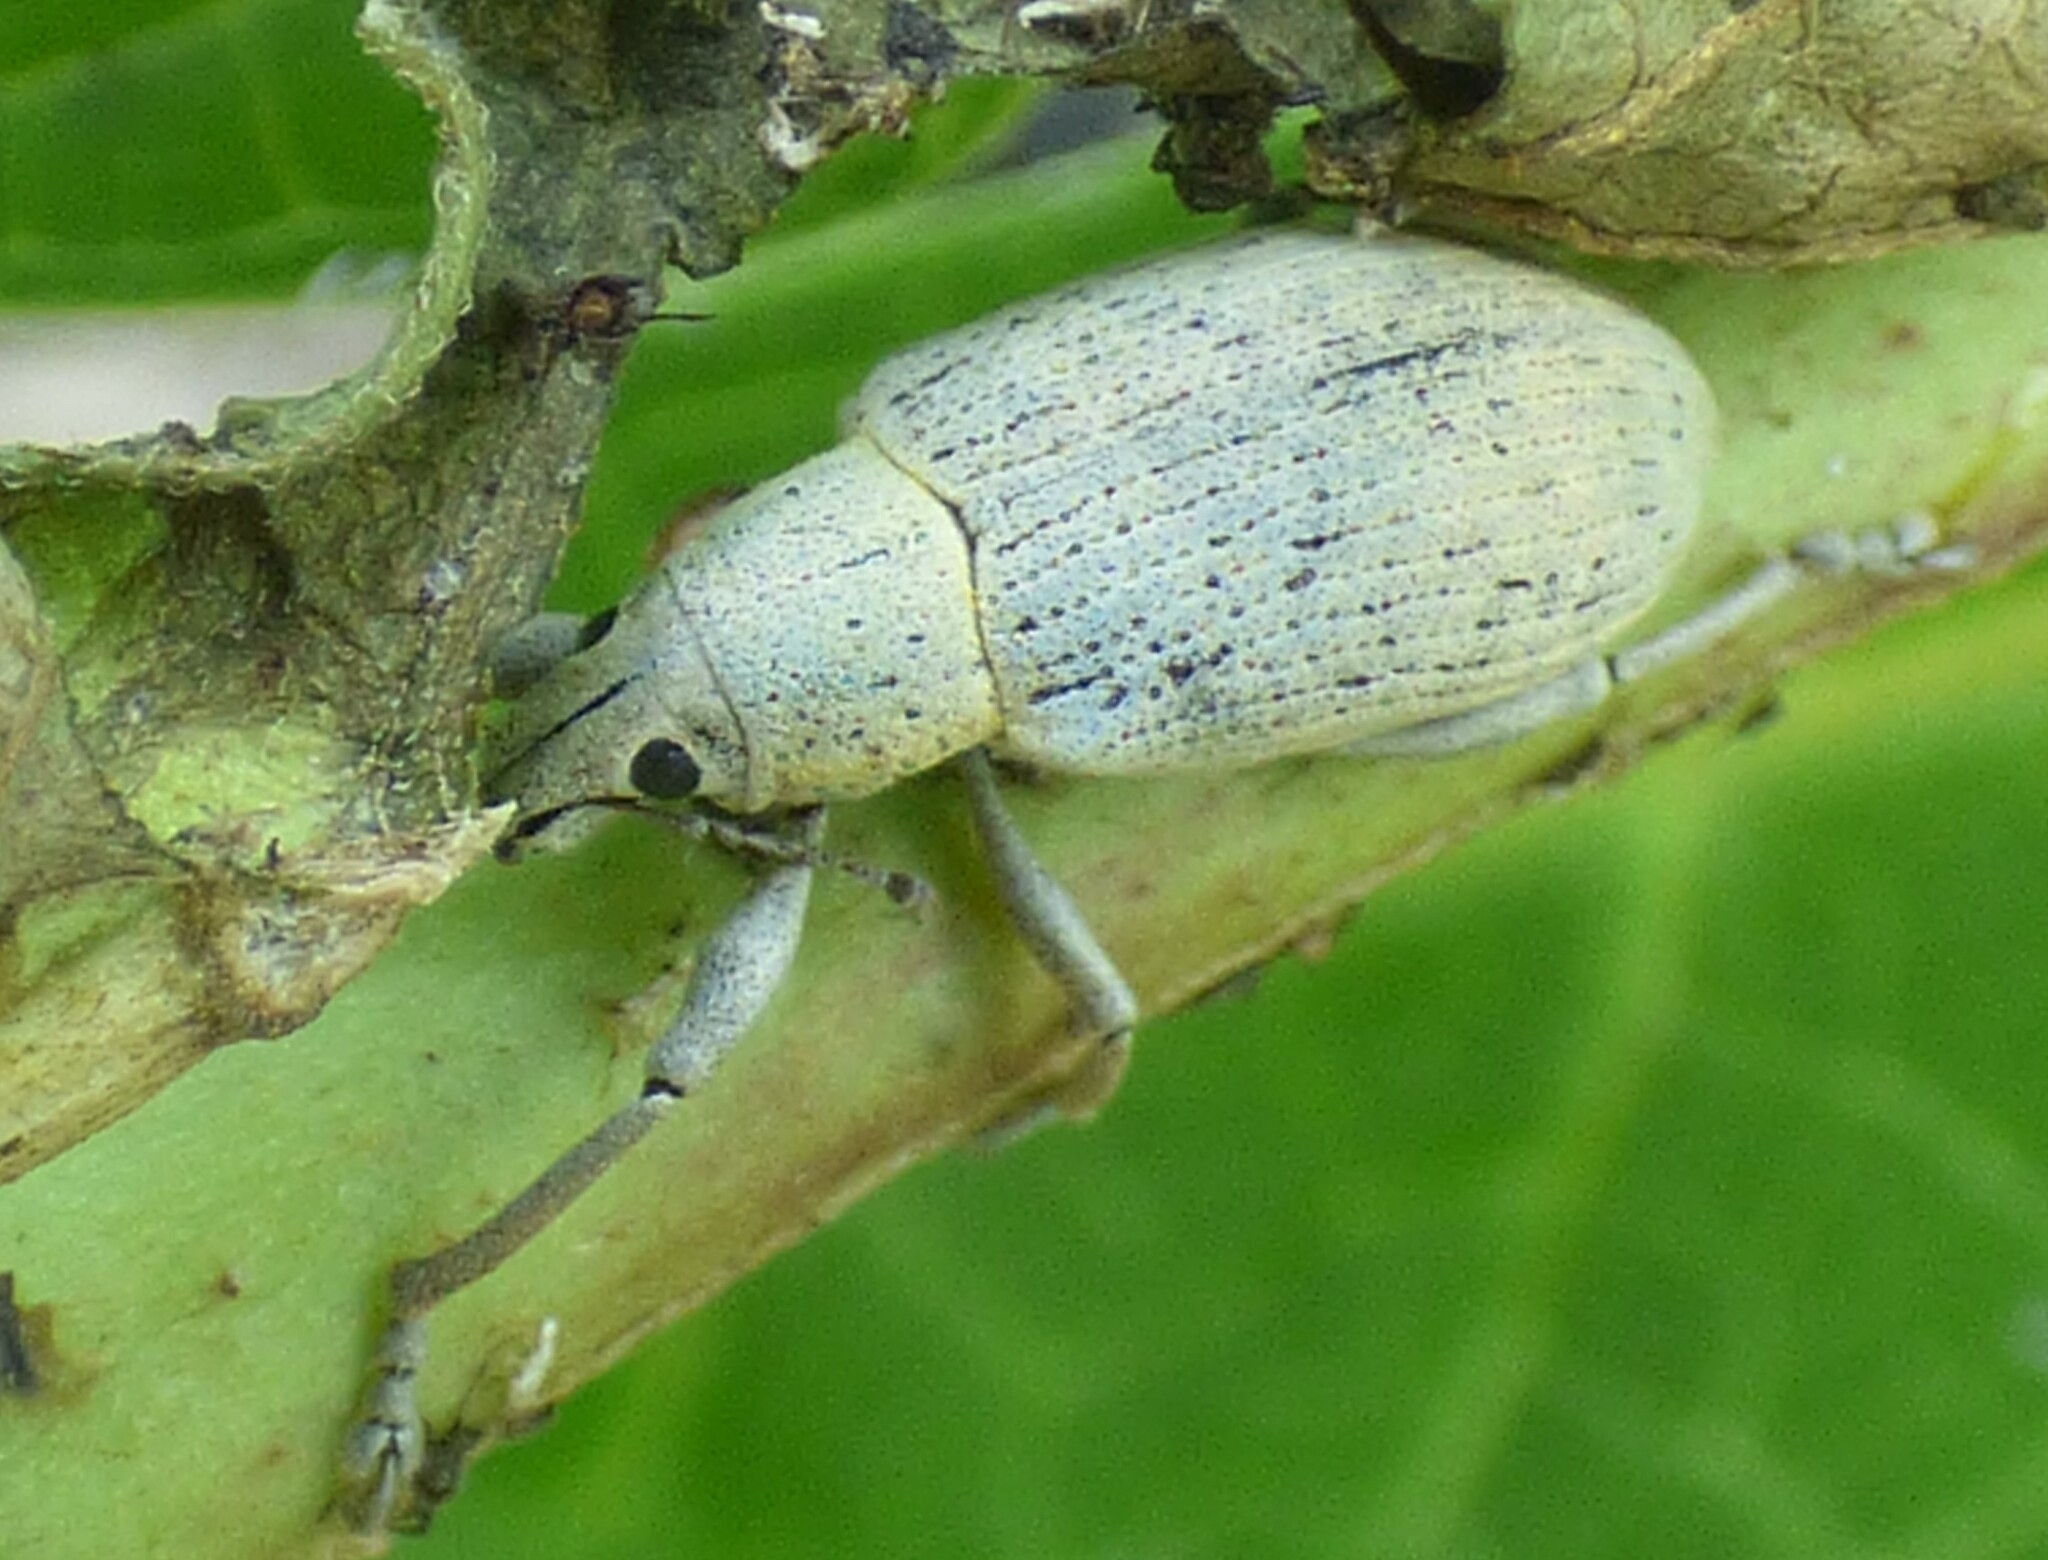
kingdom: Animalia
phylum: Arthropoda
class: Insecta
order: Coleoptera
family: Curculionidae
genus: Pachnaeus
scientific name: Pachnaeus opalus
